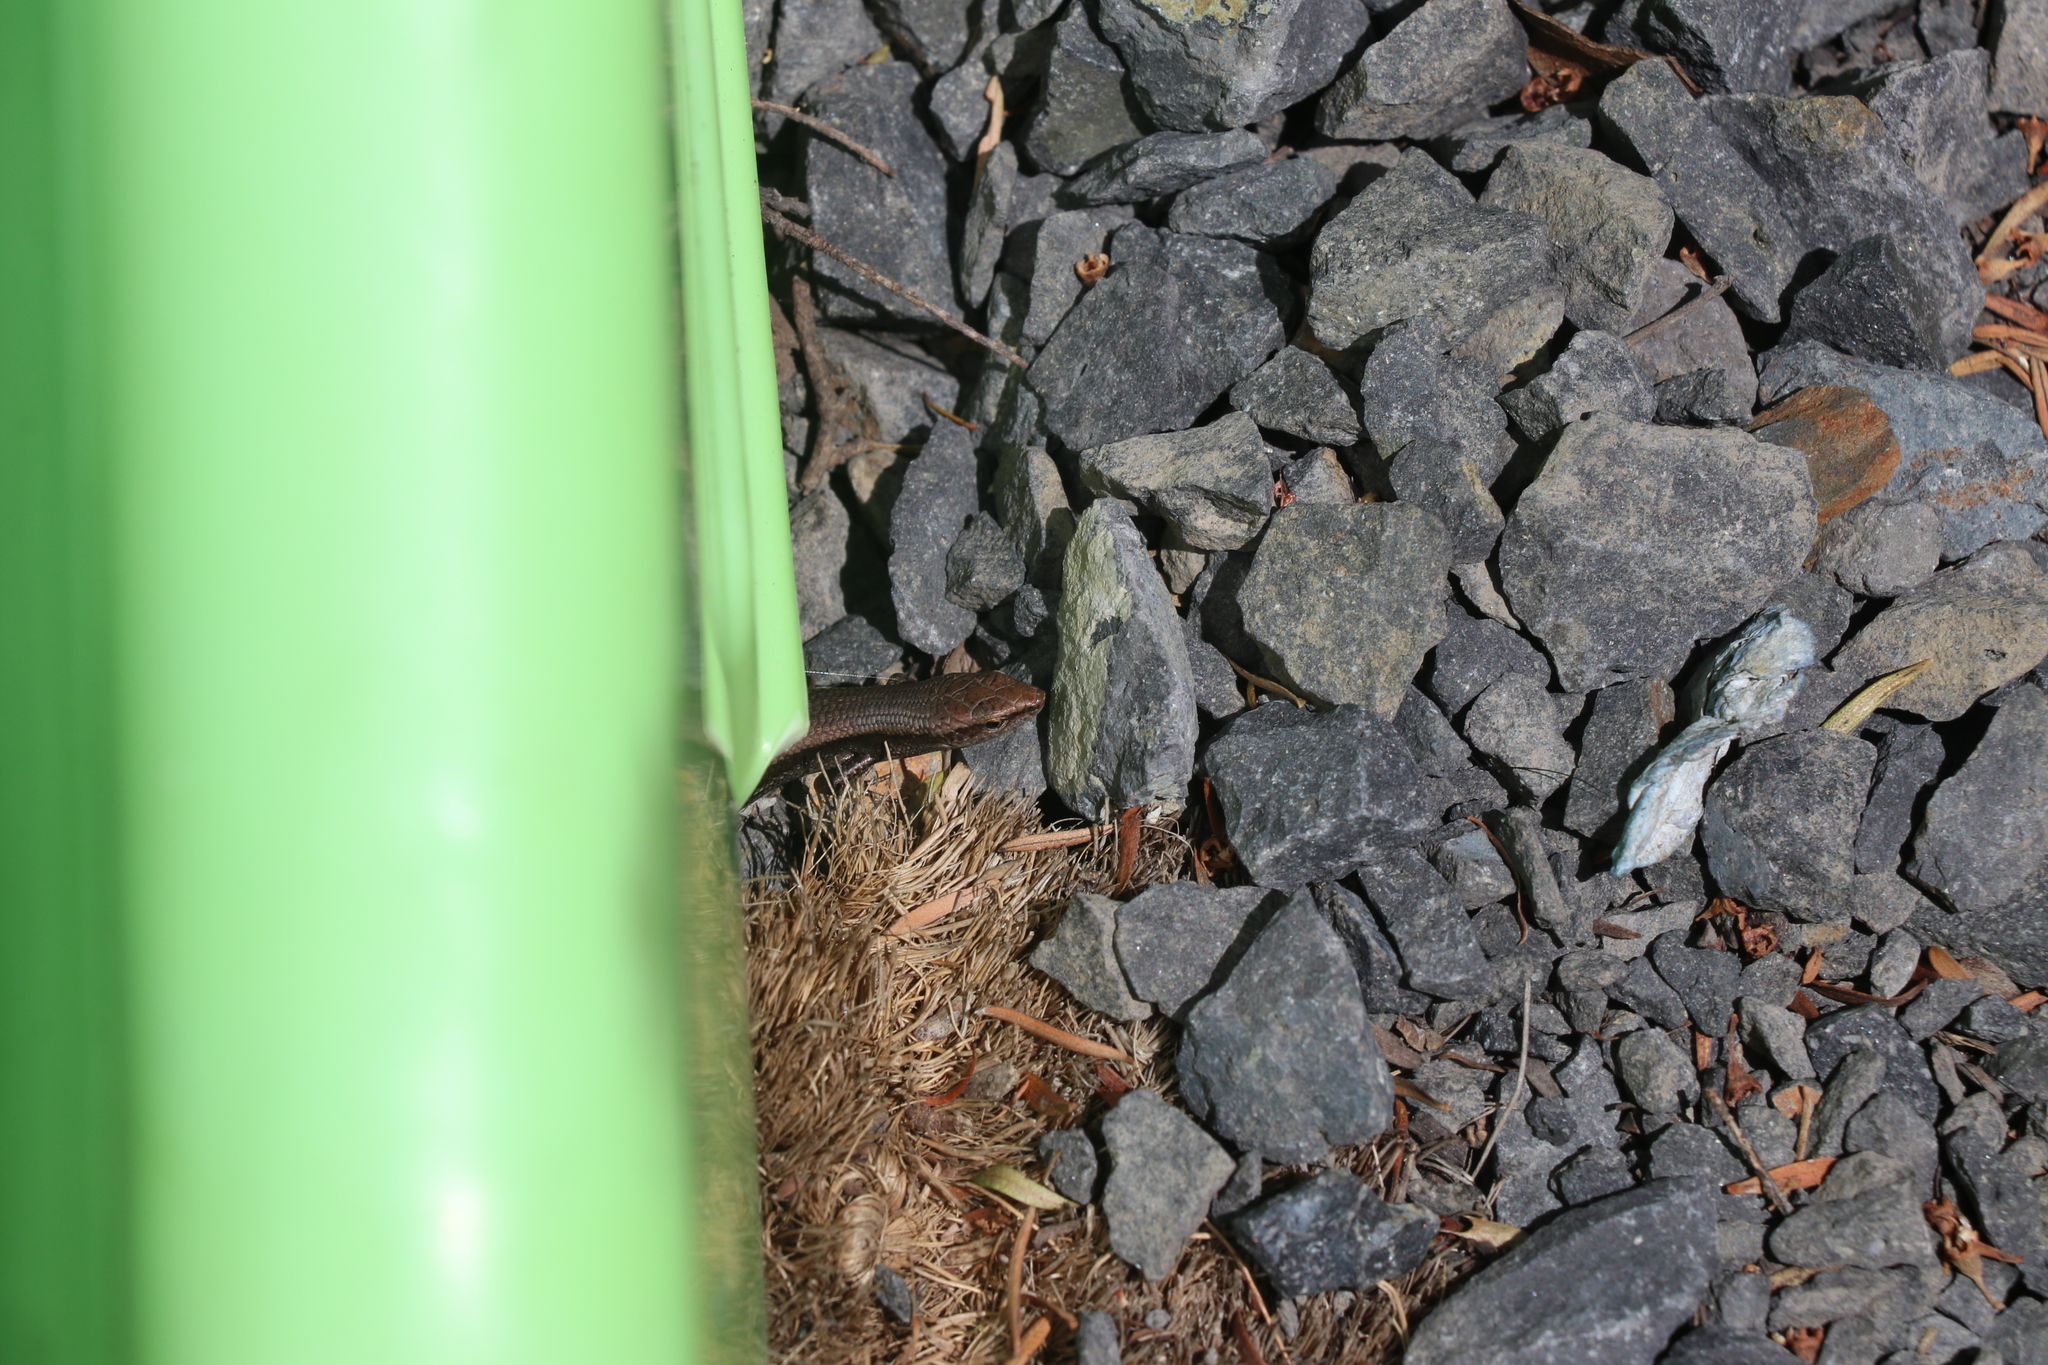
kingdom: Animalia
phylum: Chordata
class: Squamata
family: Scincidae
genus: Lampropholis
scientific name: Lampropholis delicata
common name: Plague skink
